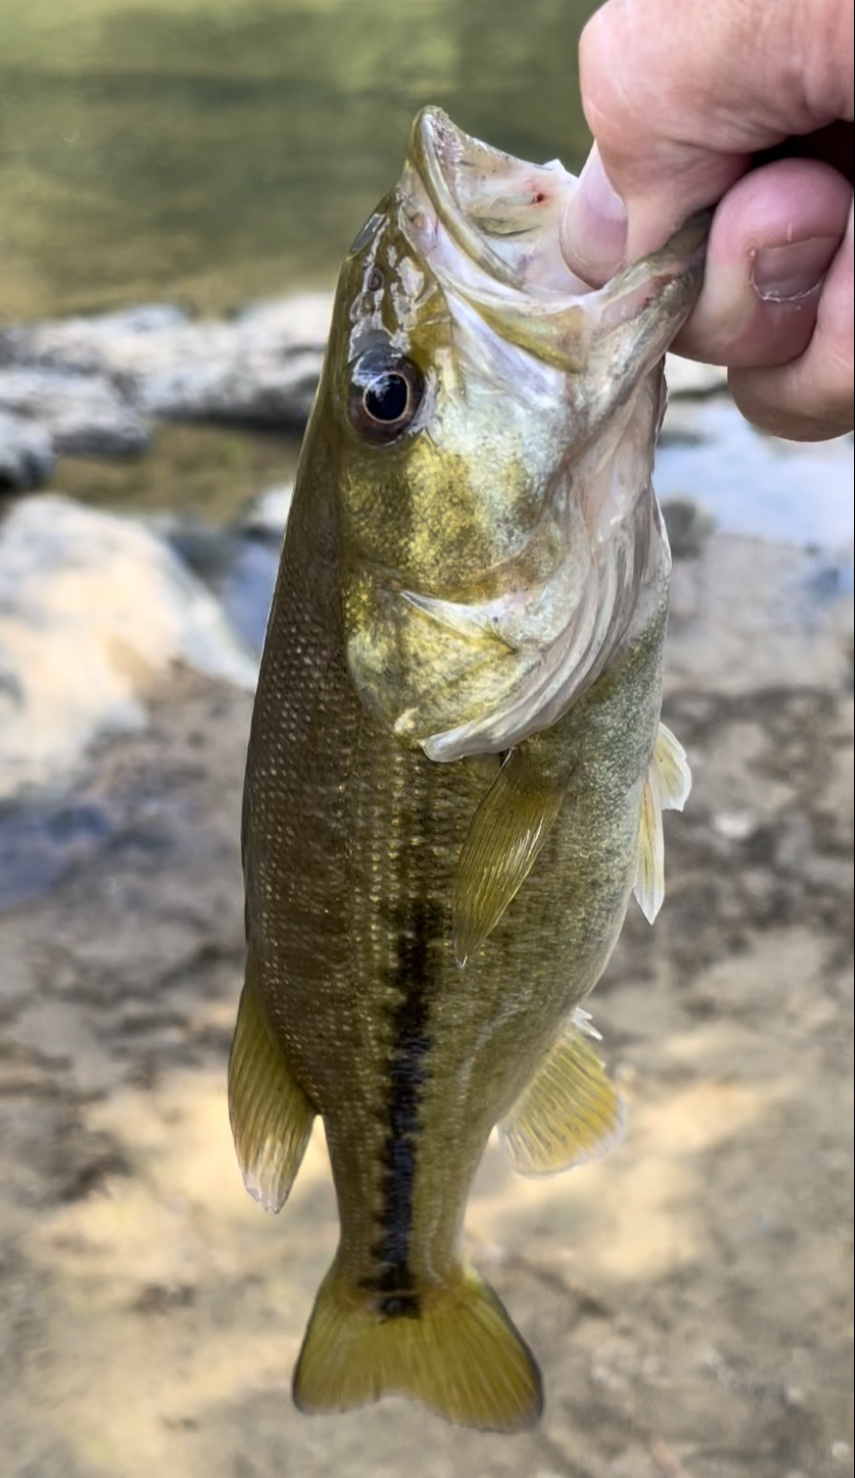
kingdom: Animalia
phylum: Chordata
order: Perciformes
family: Centrarchidae
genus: Micropterus
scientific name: Micropterus henshalli
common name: Alabama bass
